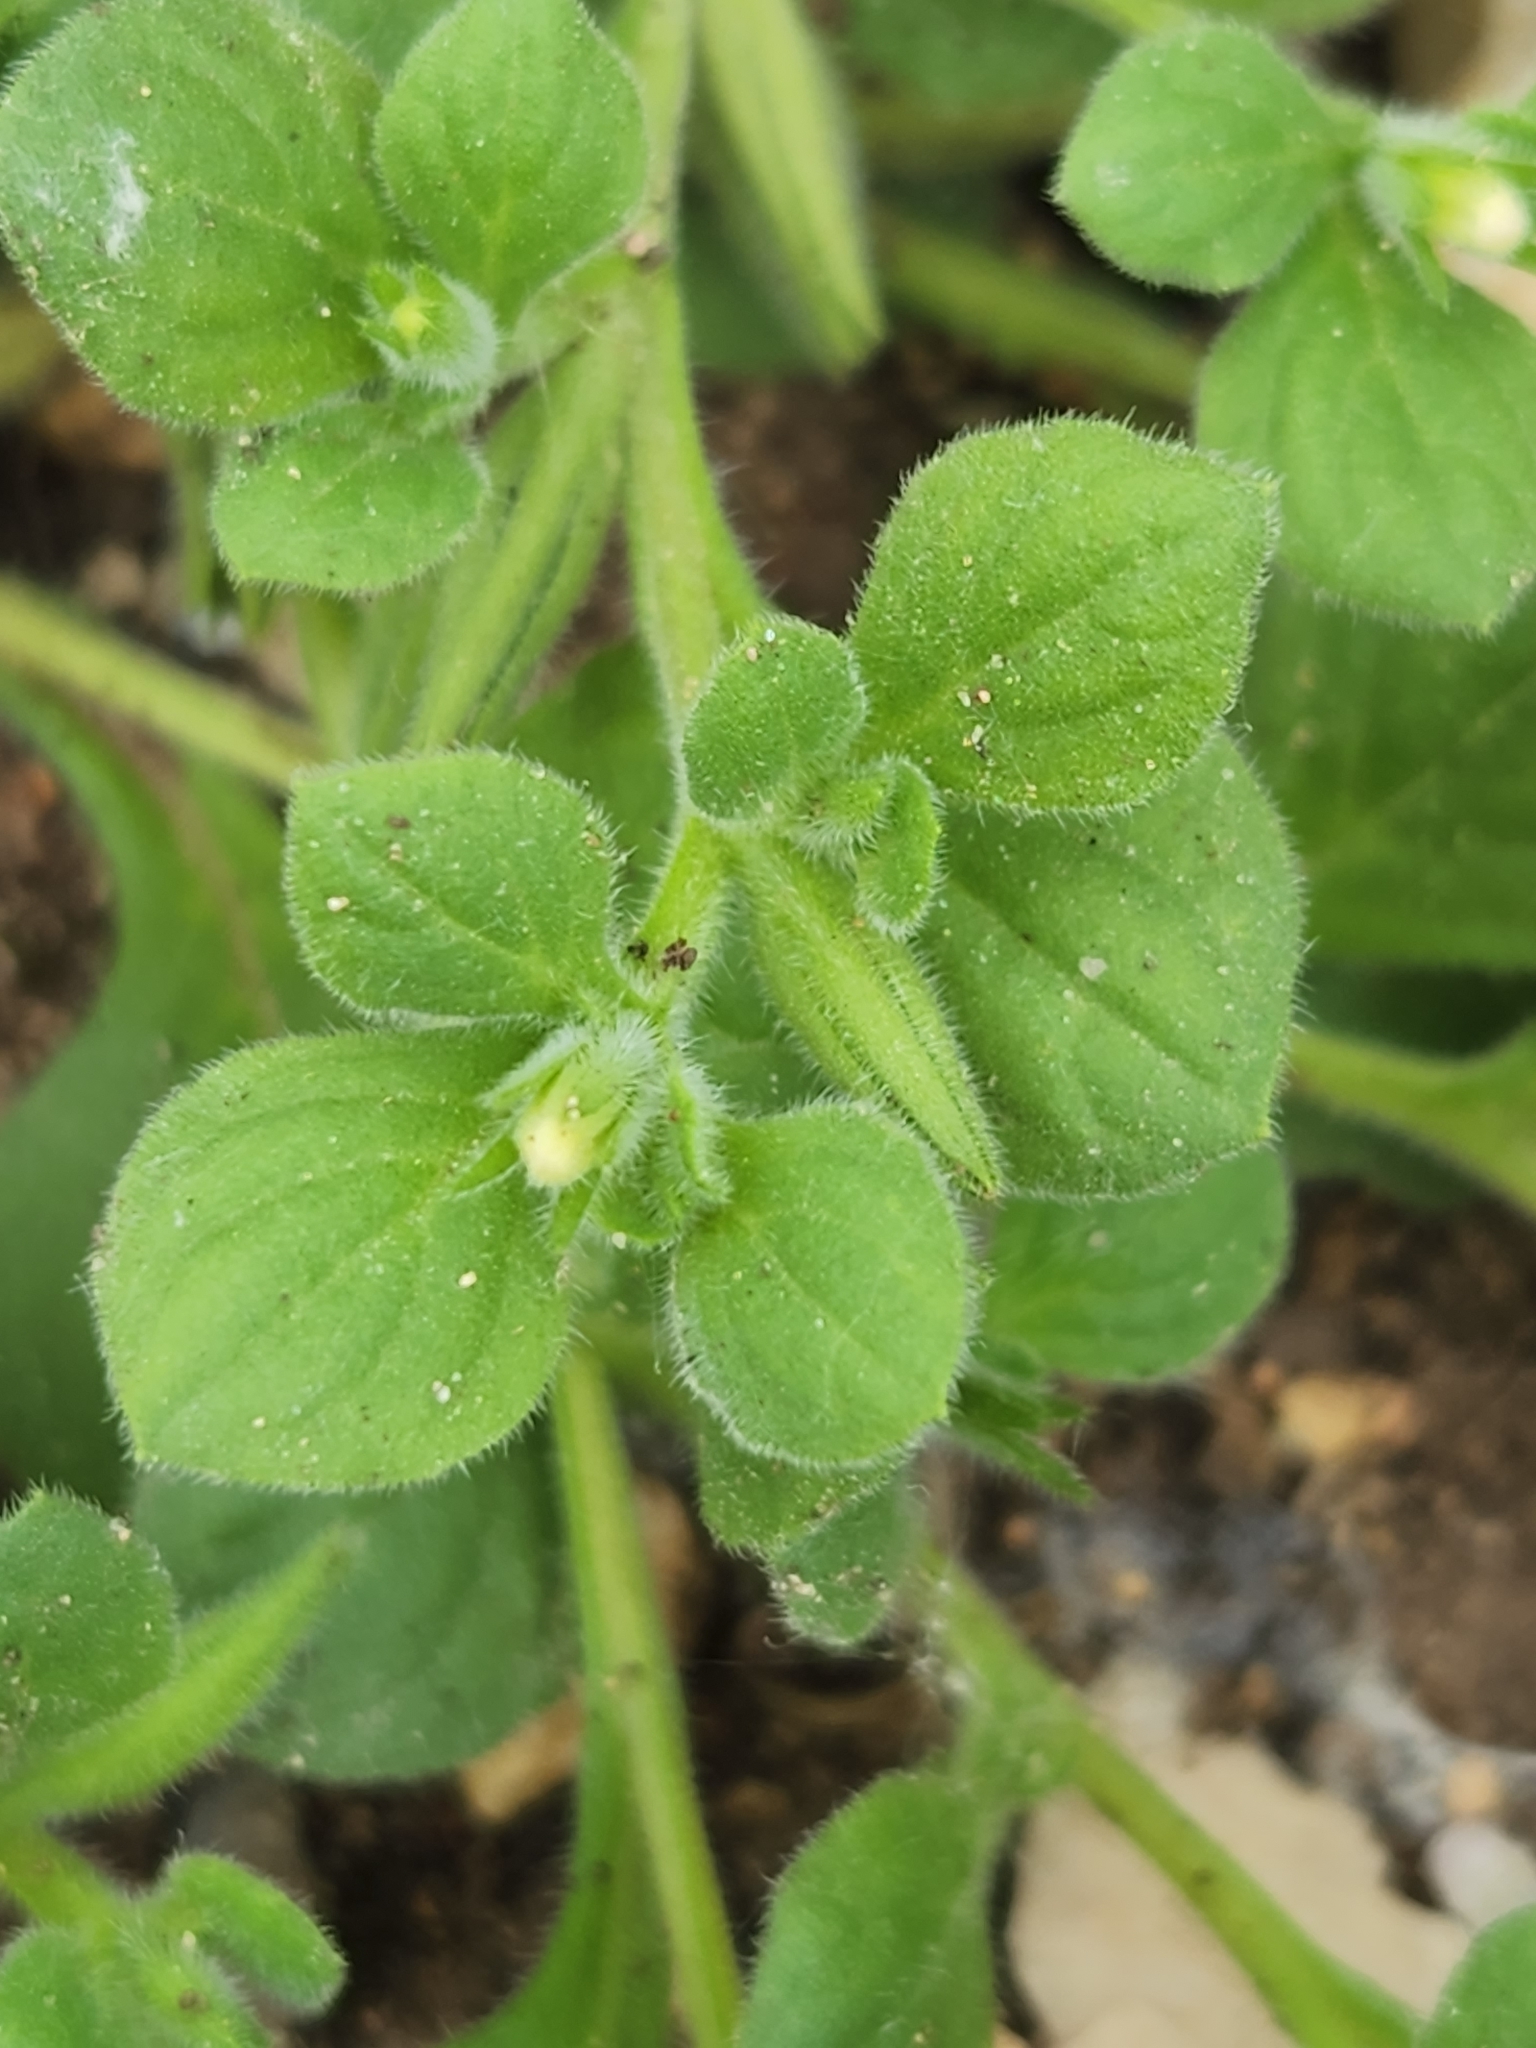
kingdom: Plantae
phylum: Tracheophyta
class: Magnoliopsida
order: Boraginales
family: Namaceae
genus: Nama
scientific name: Nama jamaicensis
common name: Jamaicanweed
